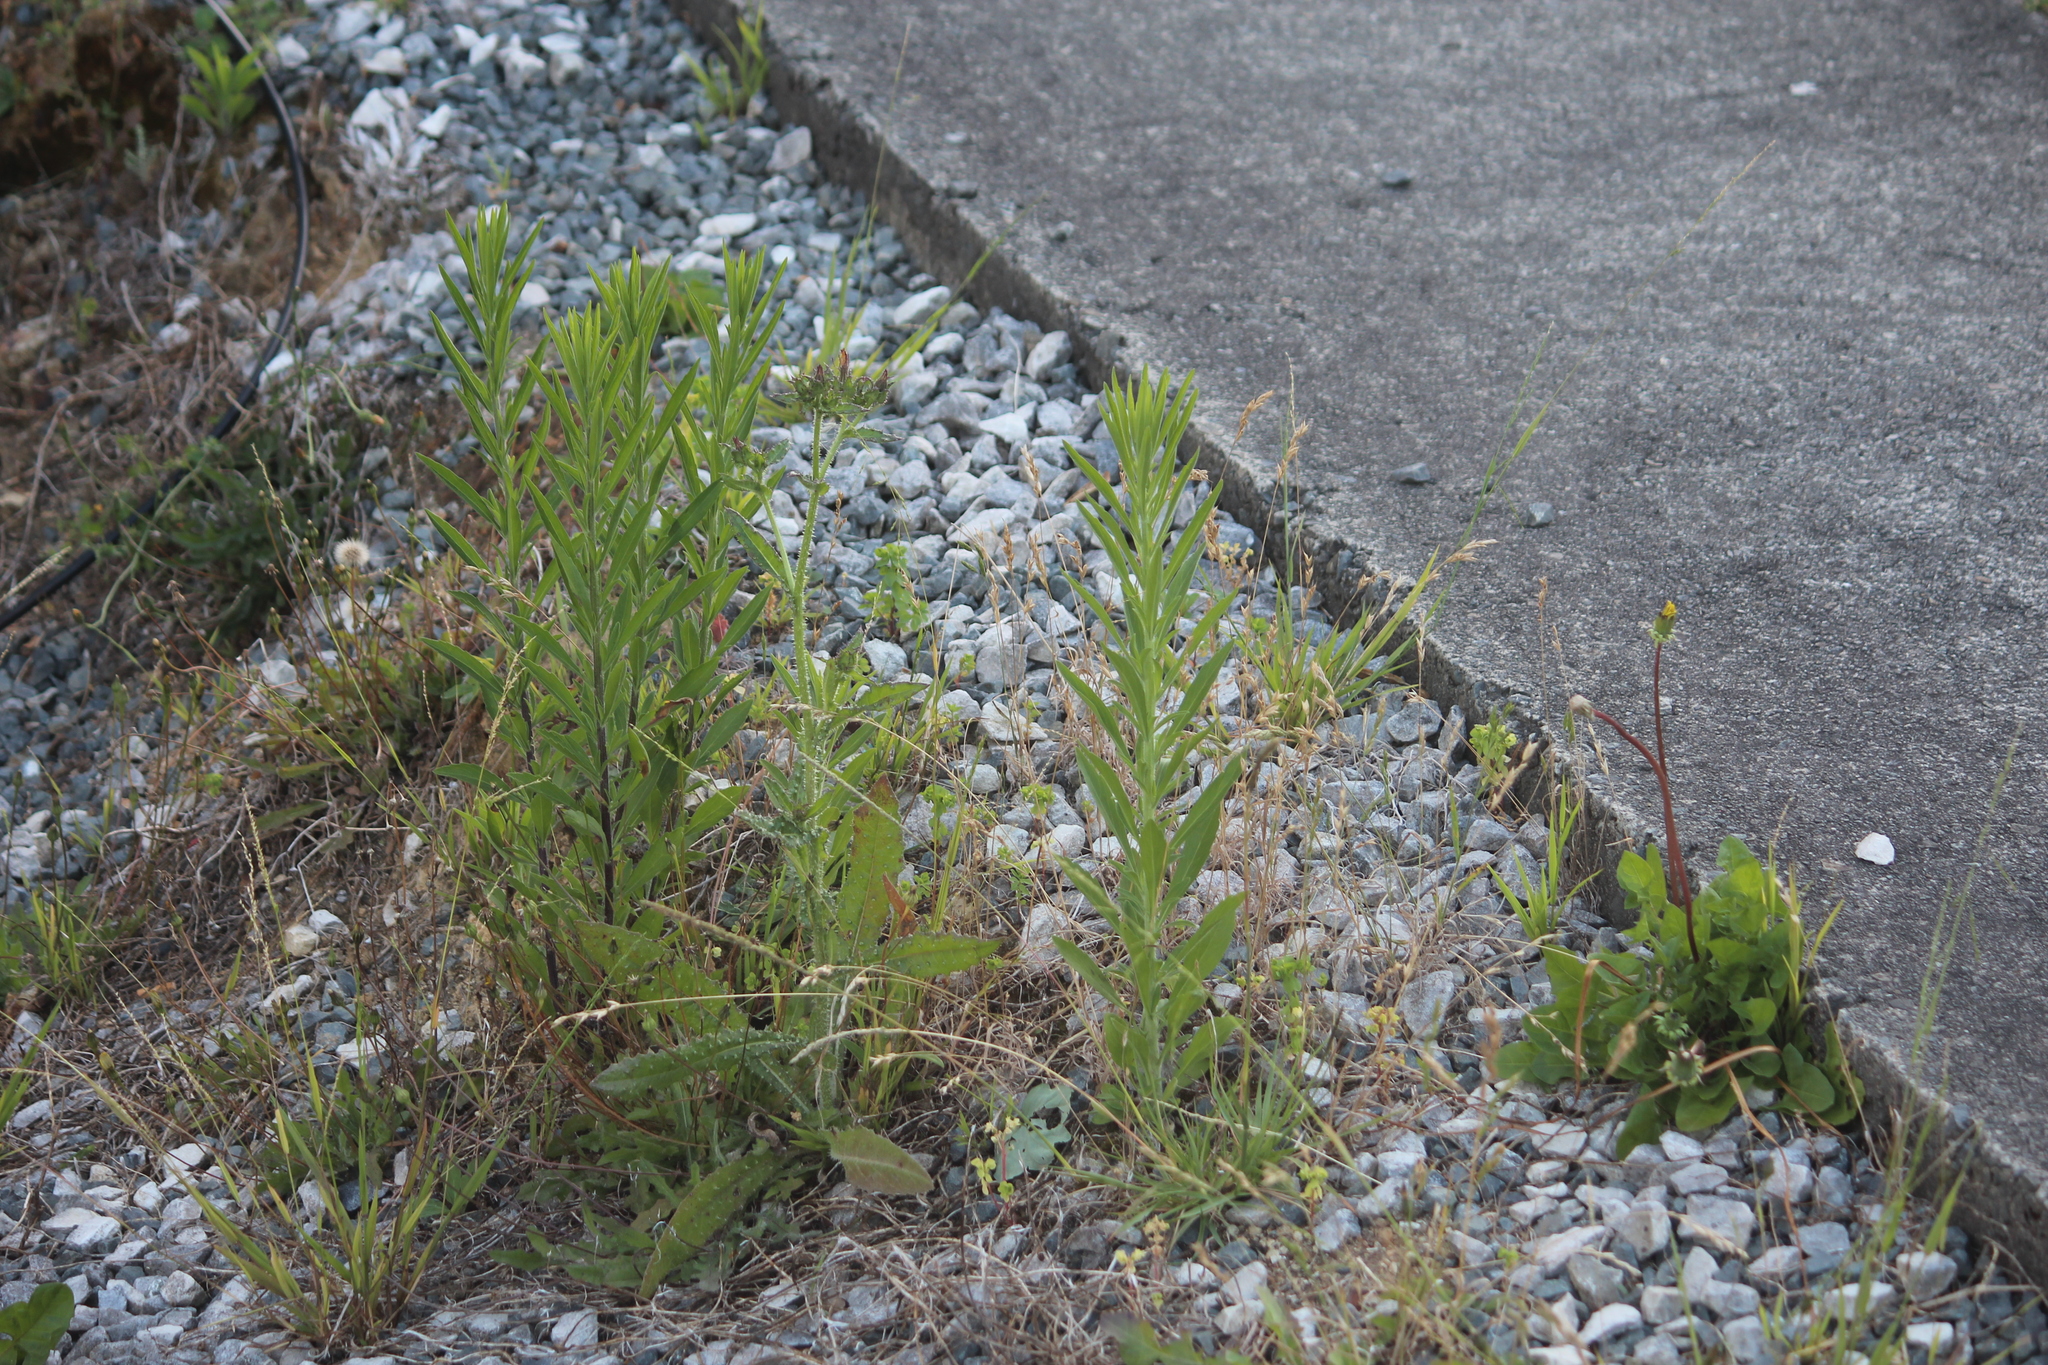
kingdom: Plantae
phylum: Tracheophyta
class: Magnoliopsida
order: Asterales
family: Asteraceae
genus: Erigeron
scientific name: Erigeron sumatrensis
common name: Daisy
